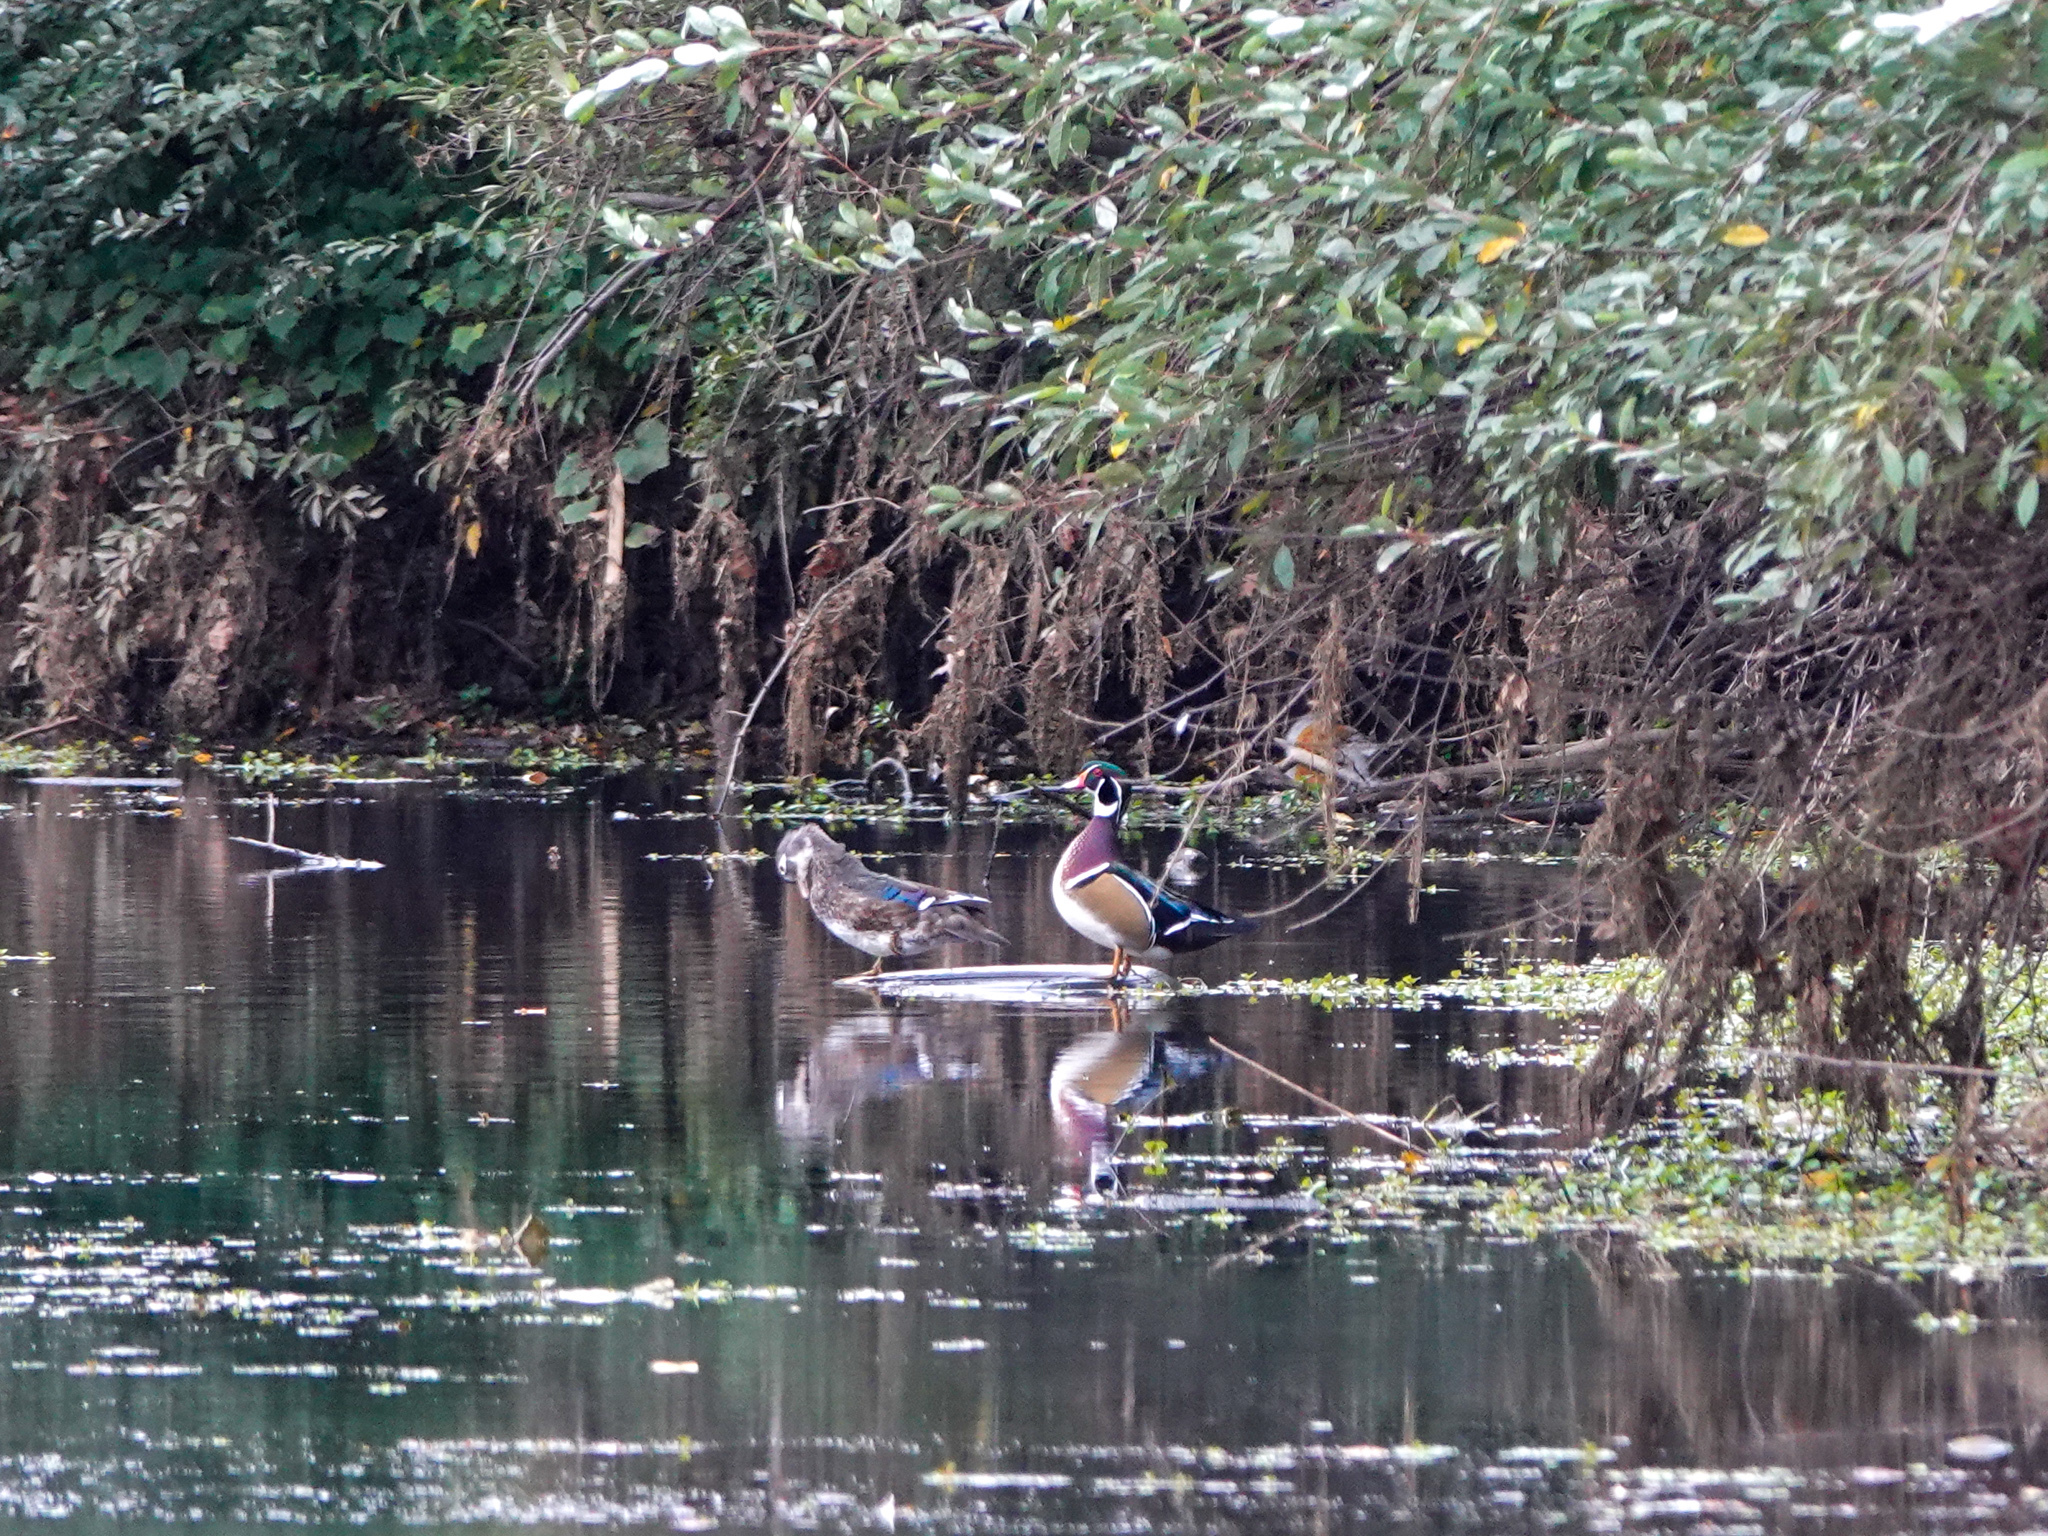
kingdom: Animalia
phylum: Chordata
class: Aves
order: Anseriformes
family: Anatidae
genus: Aix
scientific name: Aix sponsa
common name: Wood duck
